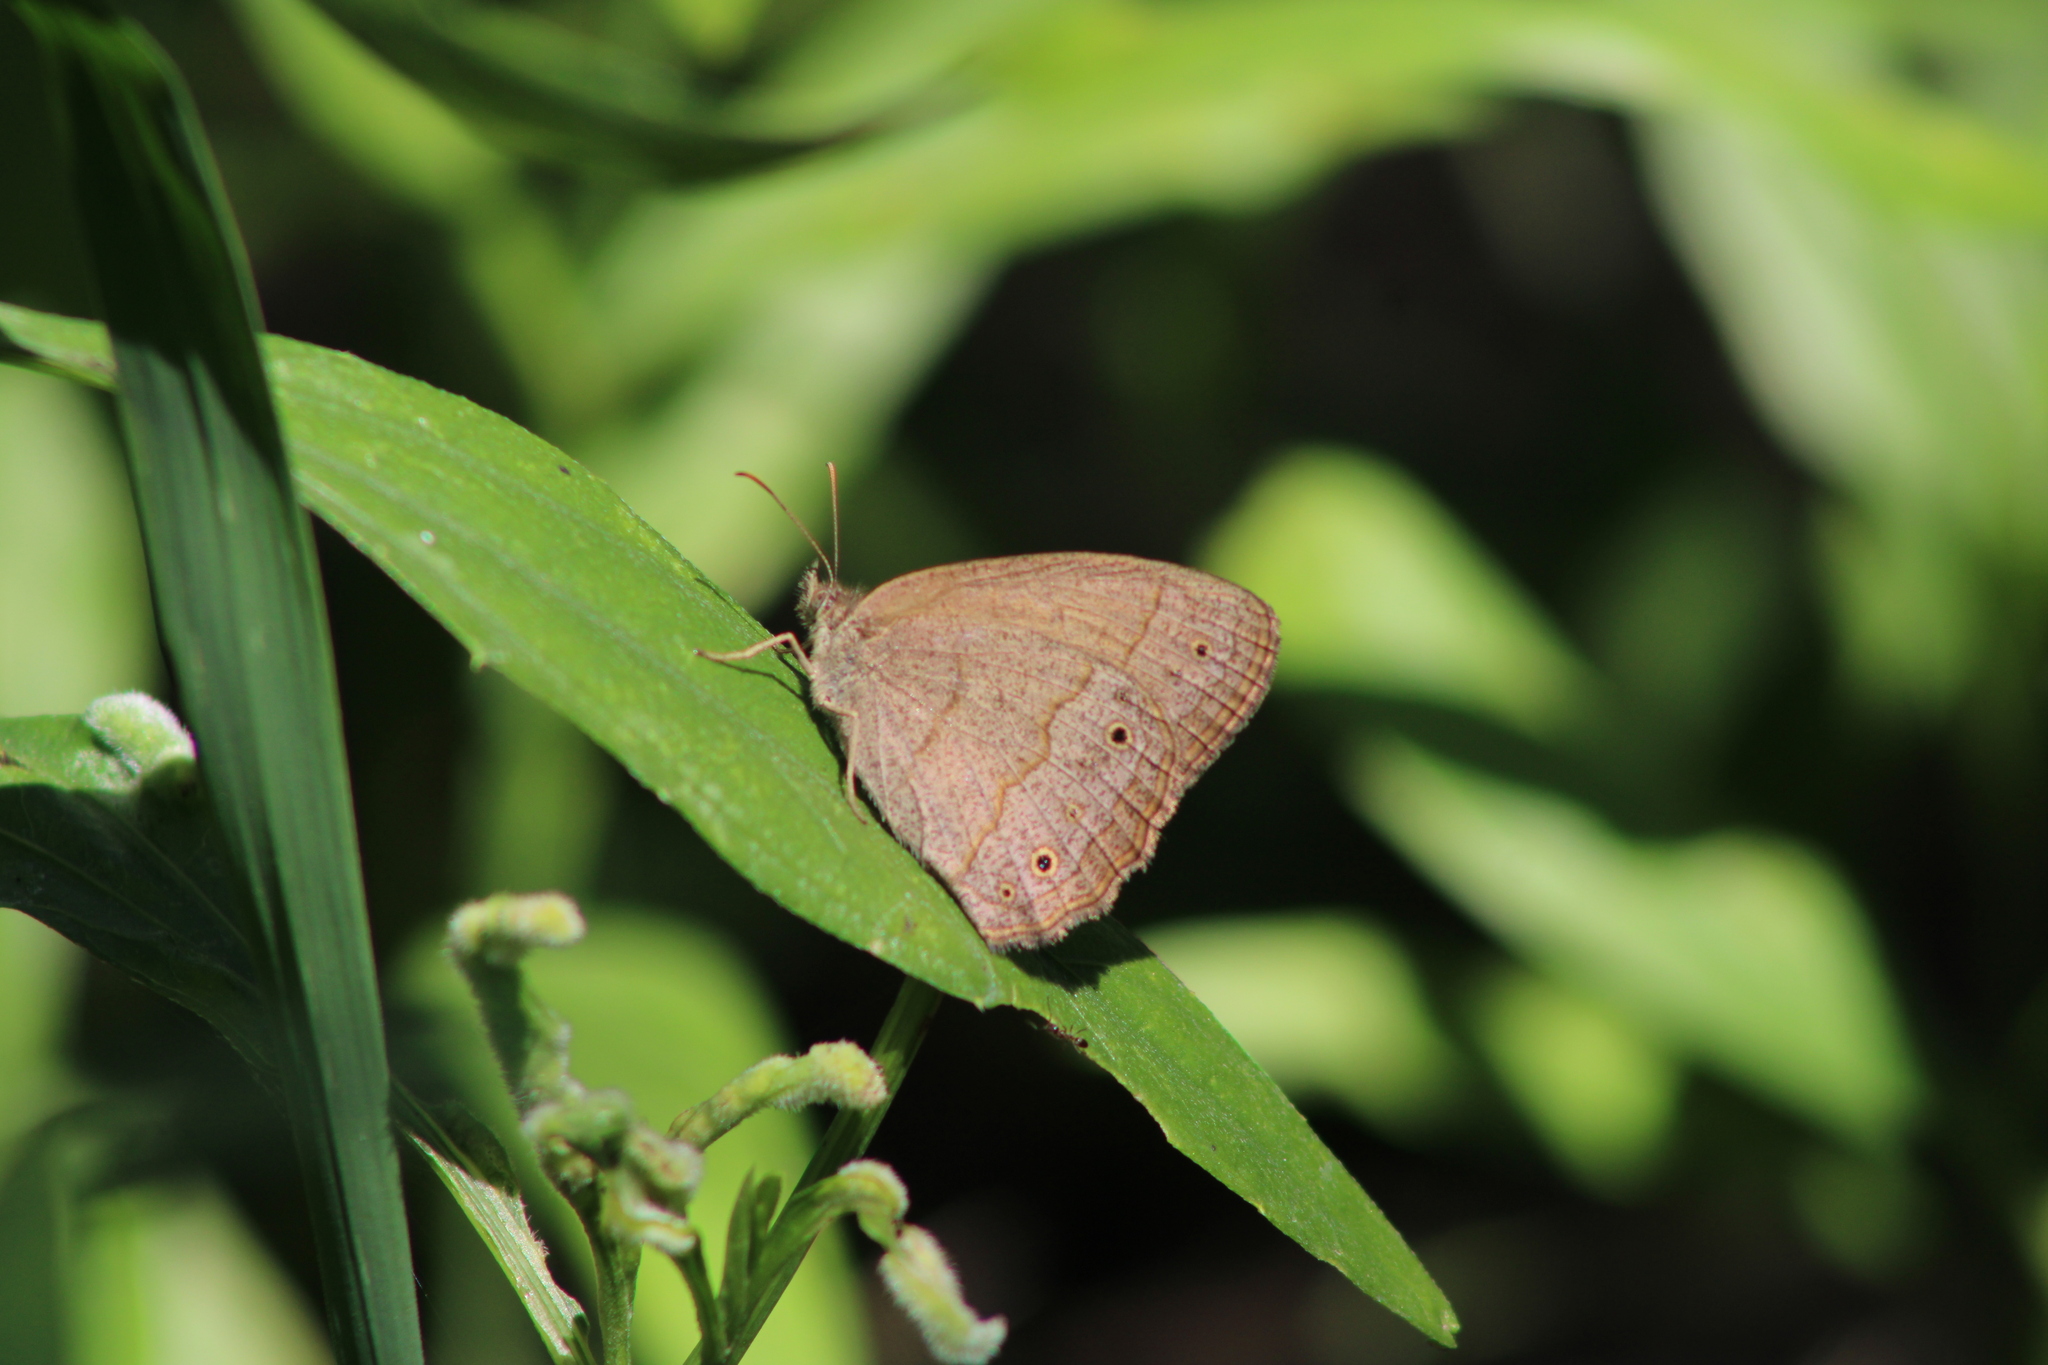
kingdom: Animalia
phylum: Arthropoda
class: Insecta
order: Lepidoptera
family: Nymphalidae
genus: Yphthimoides
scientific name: Yphthimoides celmis
